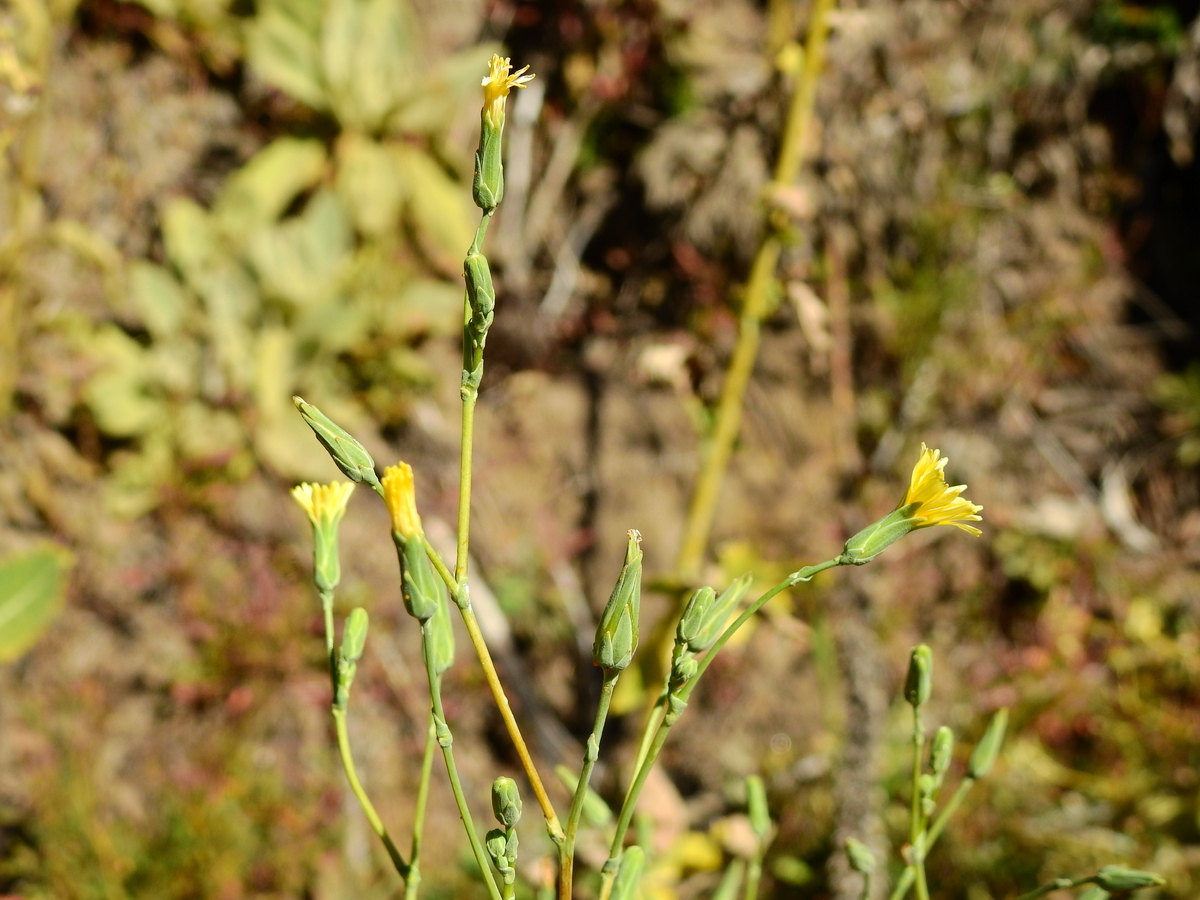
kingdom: Plantae
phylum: Tracheophyta
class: Magnoliopsida
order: Asterales
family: Asteraceae
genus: Lactuca
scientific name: Lactuca virosa
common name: Great lettuce
